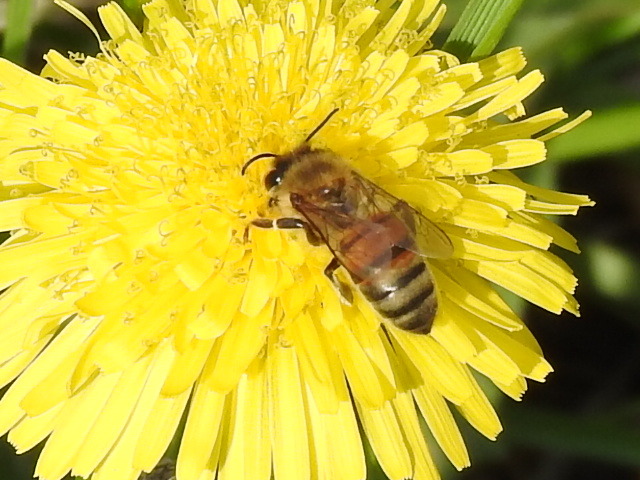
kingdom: Animalia
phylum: Arthropoda
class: Insecta
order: Hymenoptera
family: Apidae
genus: Apis
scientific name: Apis mellifera
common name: Honey bee
